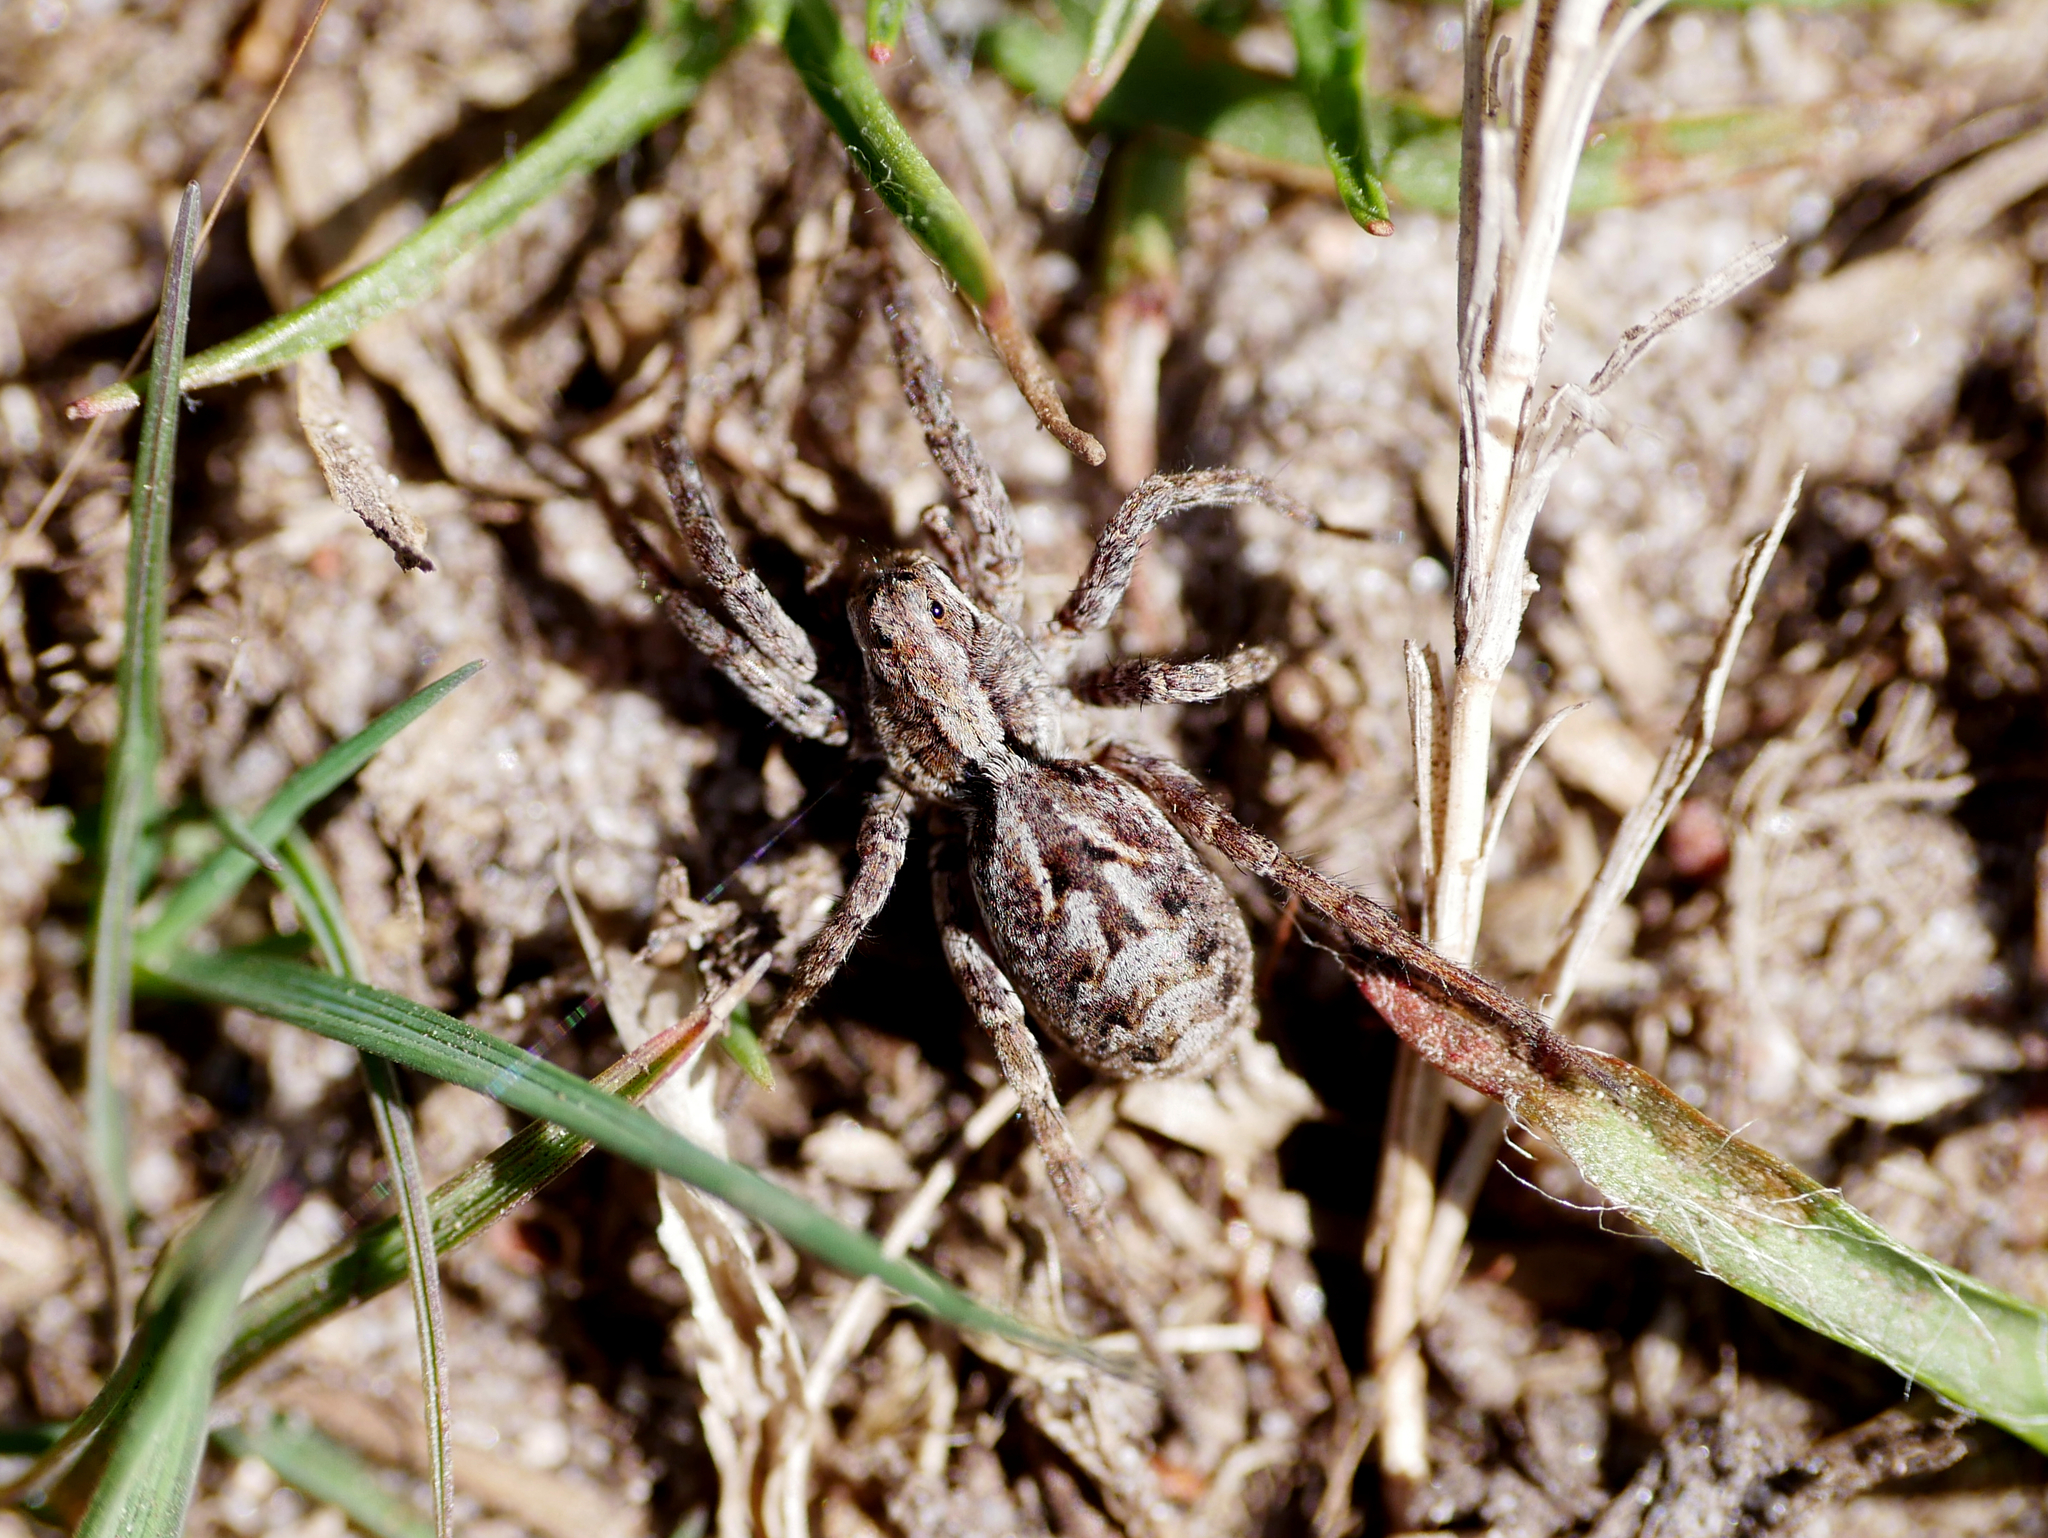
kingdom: Animalia
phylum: Arthropoda
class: Arachnida
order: Araneae
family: Lycosidae
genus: Alopecosa
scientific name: Alopecosa barbipes
